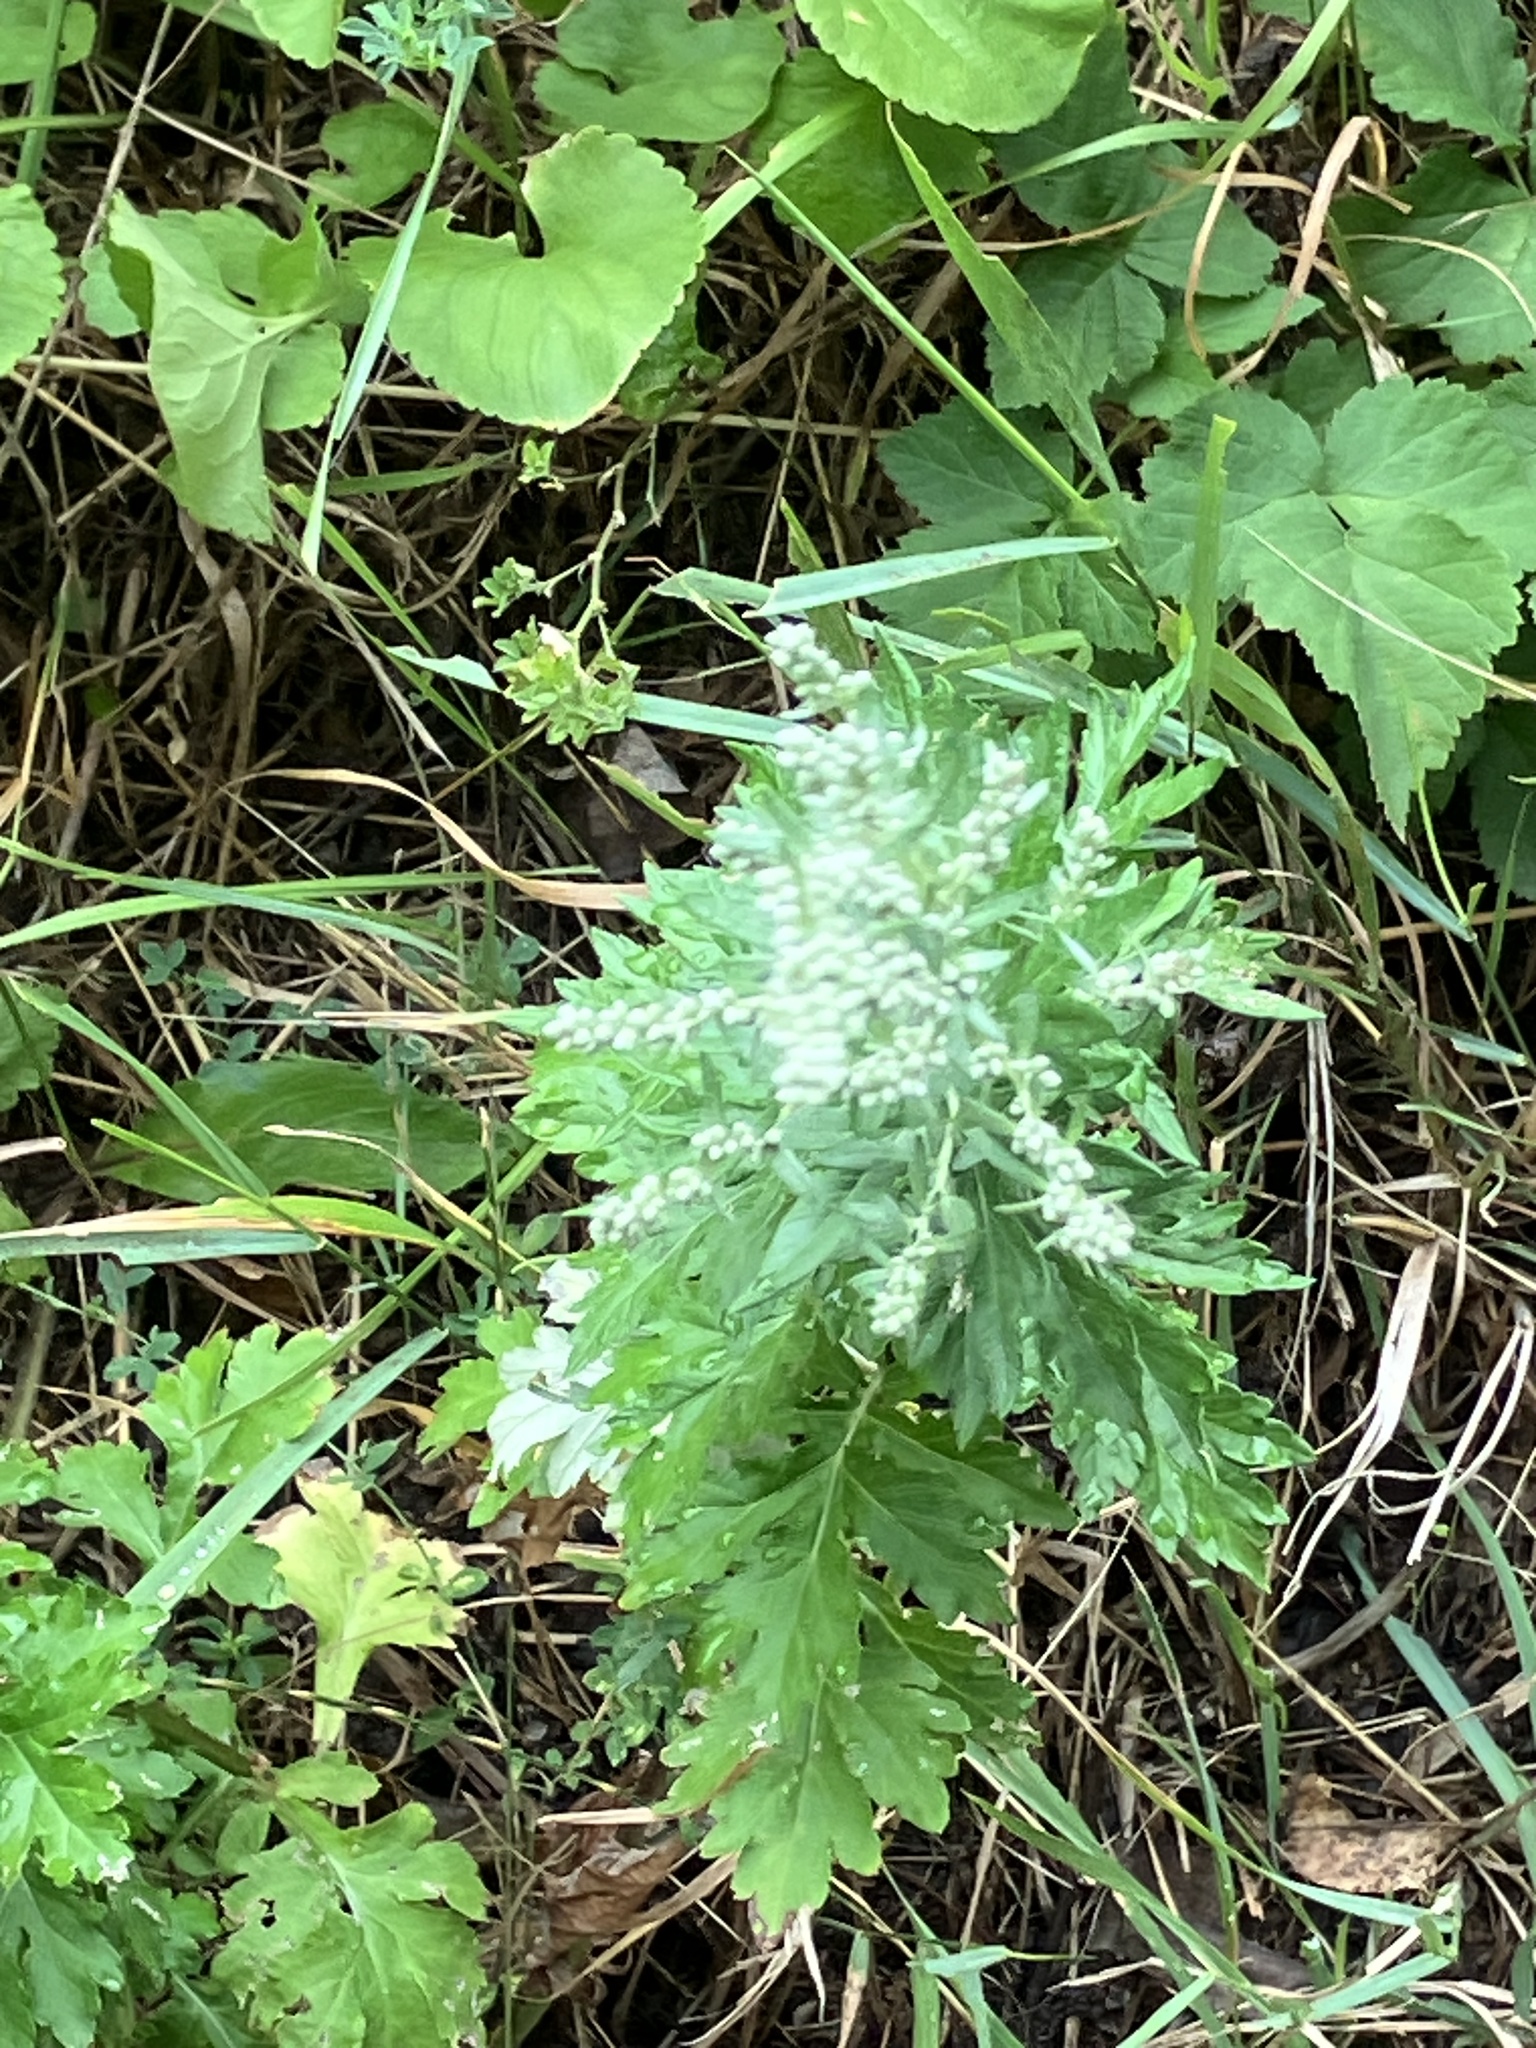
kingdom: Plantae
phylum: Tracheophyta
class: Magnoliopsida
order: Asterales
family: Asteraceae
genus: Artemisia
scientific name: Artemisia vulgaris
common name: Mugwort
